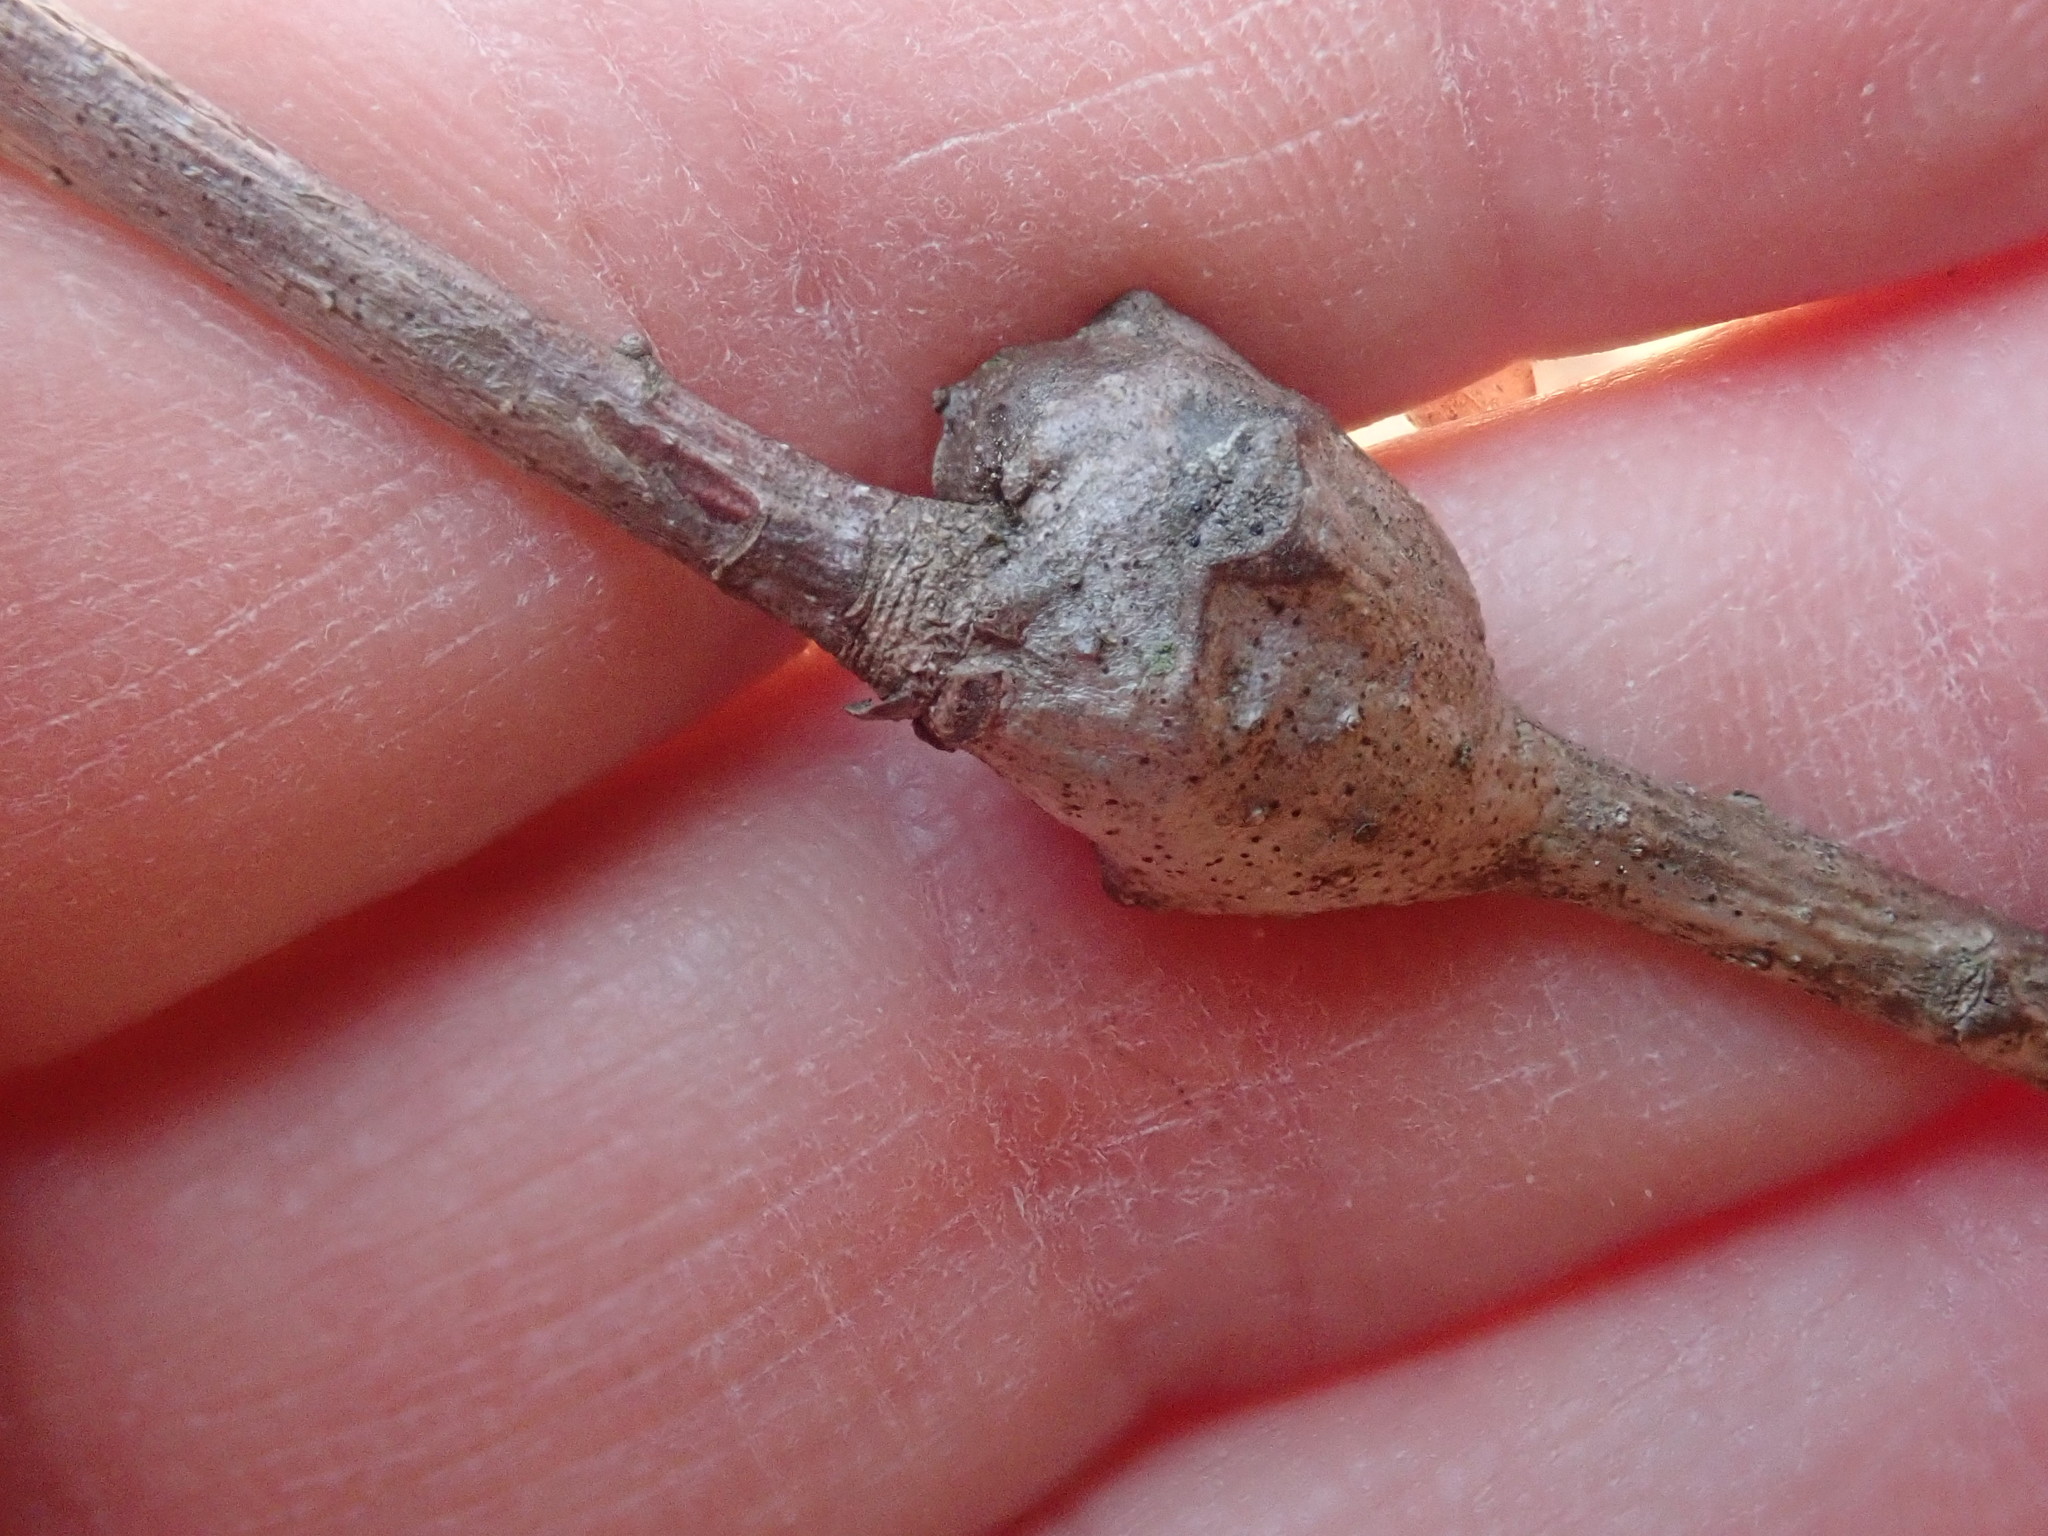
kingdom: Animalia
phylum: Arthropoda
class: Insecta
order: Hymenoptera
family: Cynipidae
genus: Callirhytis
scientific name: Callirhytis clavula
